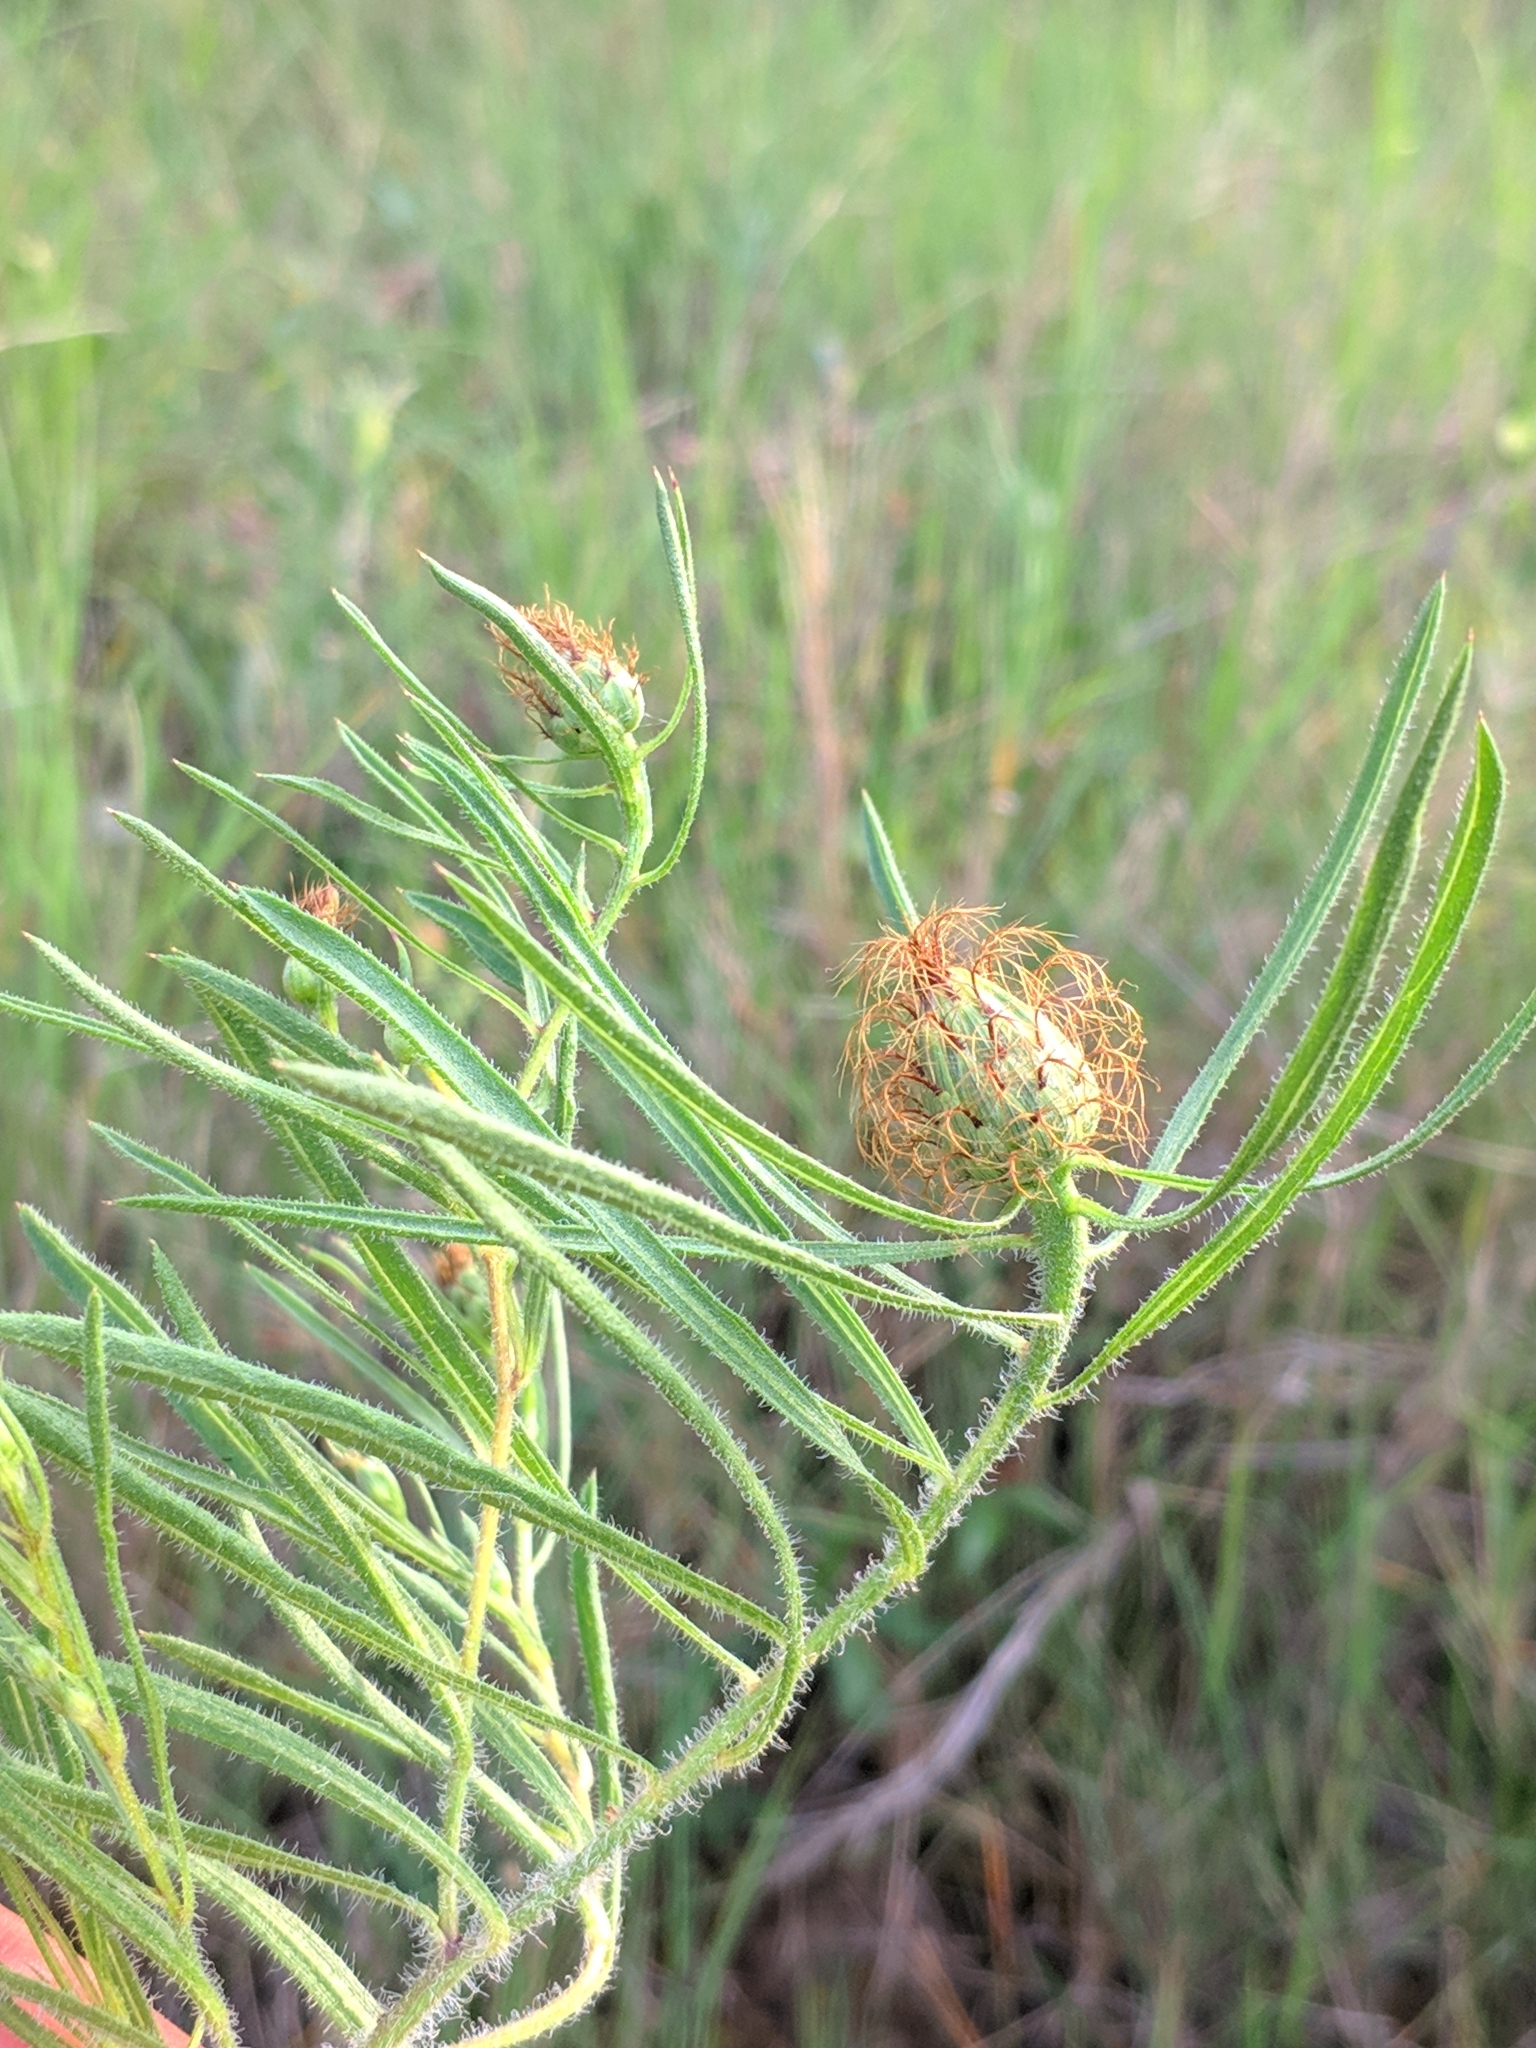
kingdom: Plantae
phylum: Tracheophyta
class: Magnoliopsida
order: Asterales
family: Asteraceae
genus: Centaurea
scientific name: Centaurea linifolia
